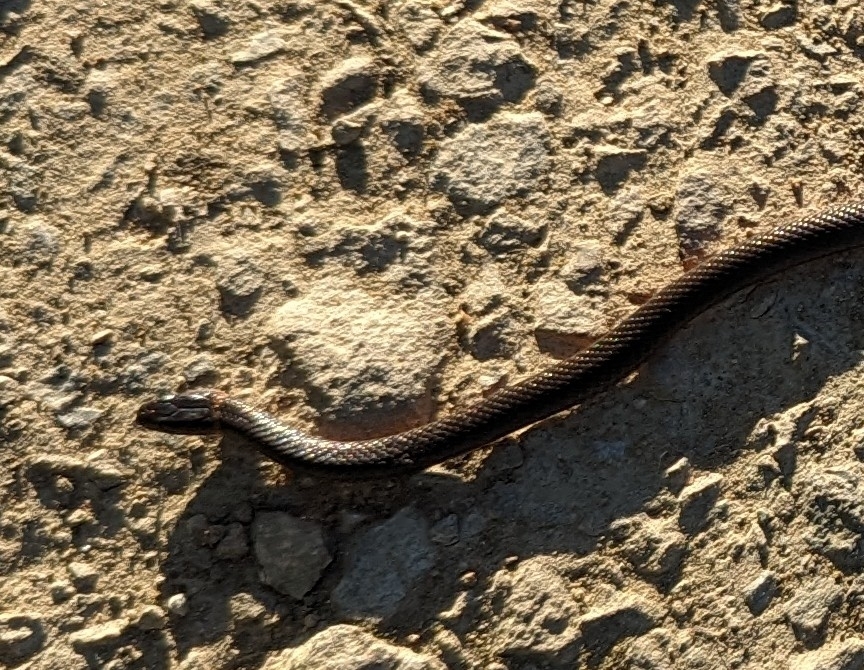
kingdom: Animalia
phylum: Chordata
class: Squamata
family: Colubridae
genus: Diadophis
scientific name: Diadophis punctatus
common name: Ringneck snake
